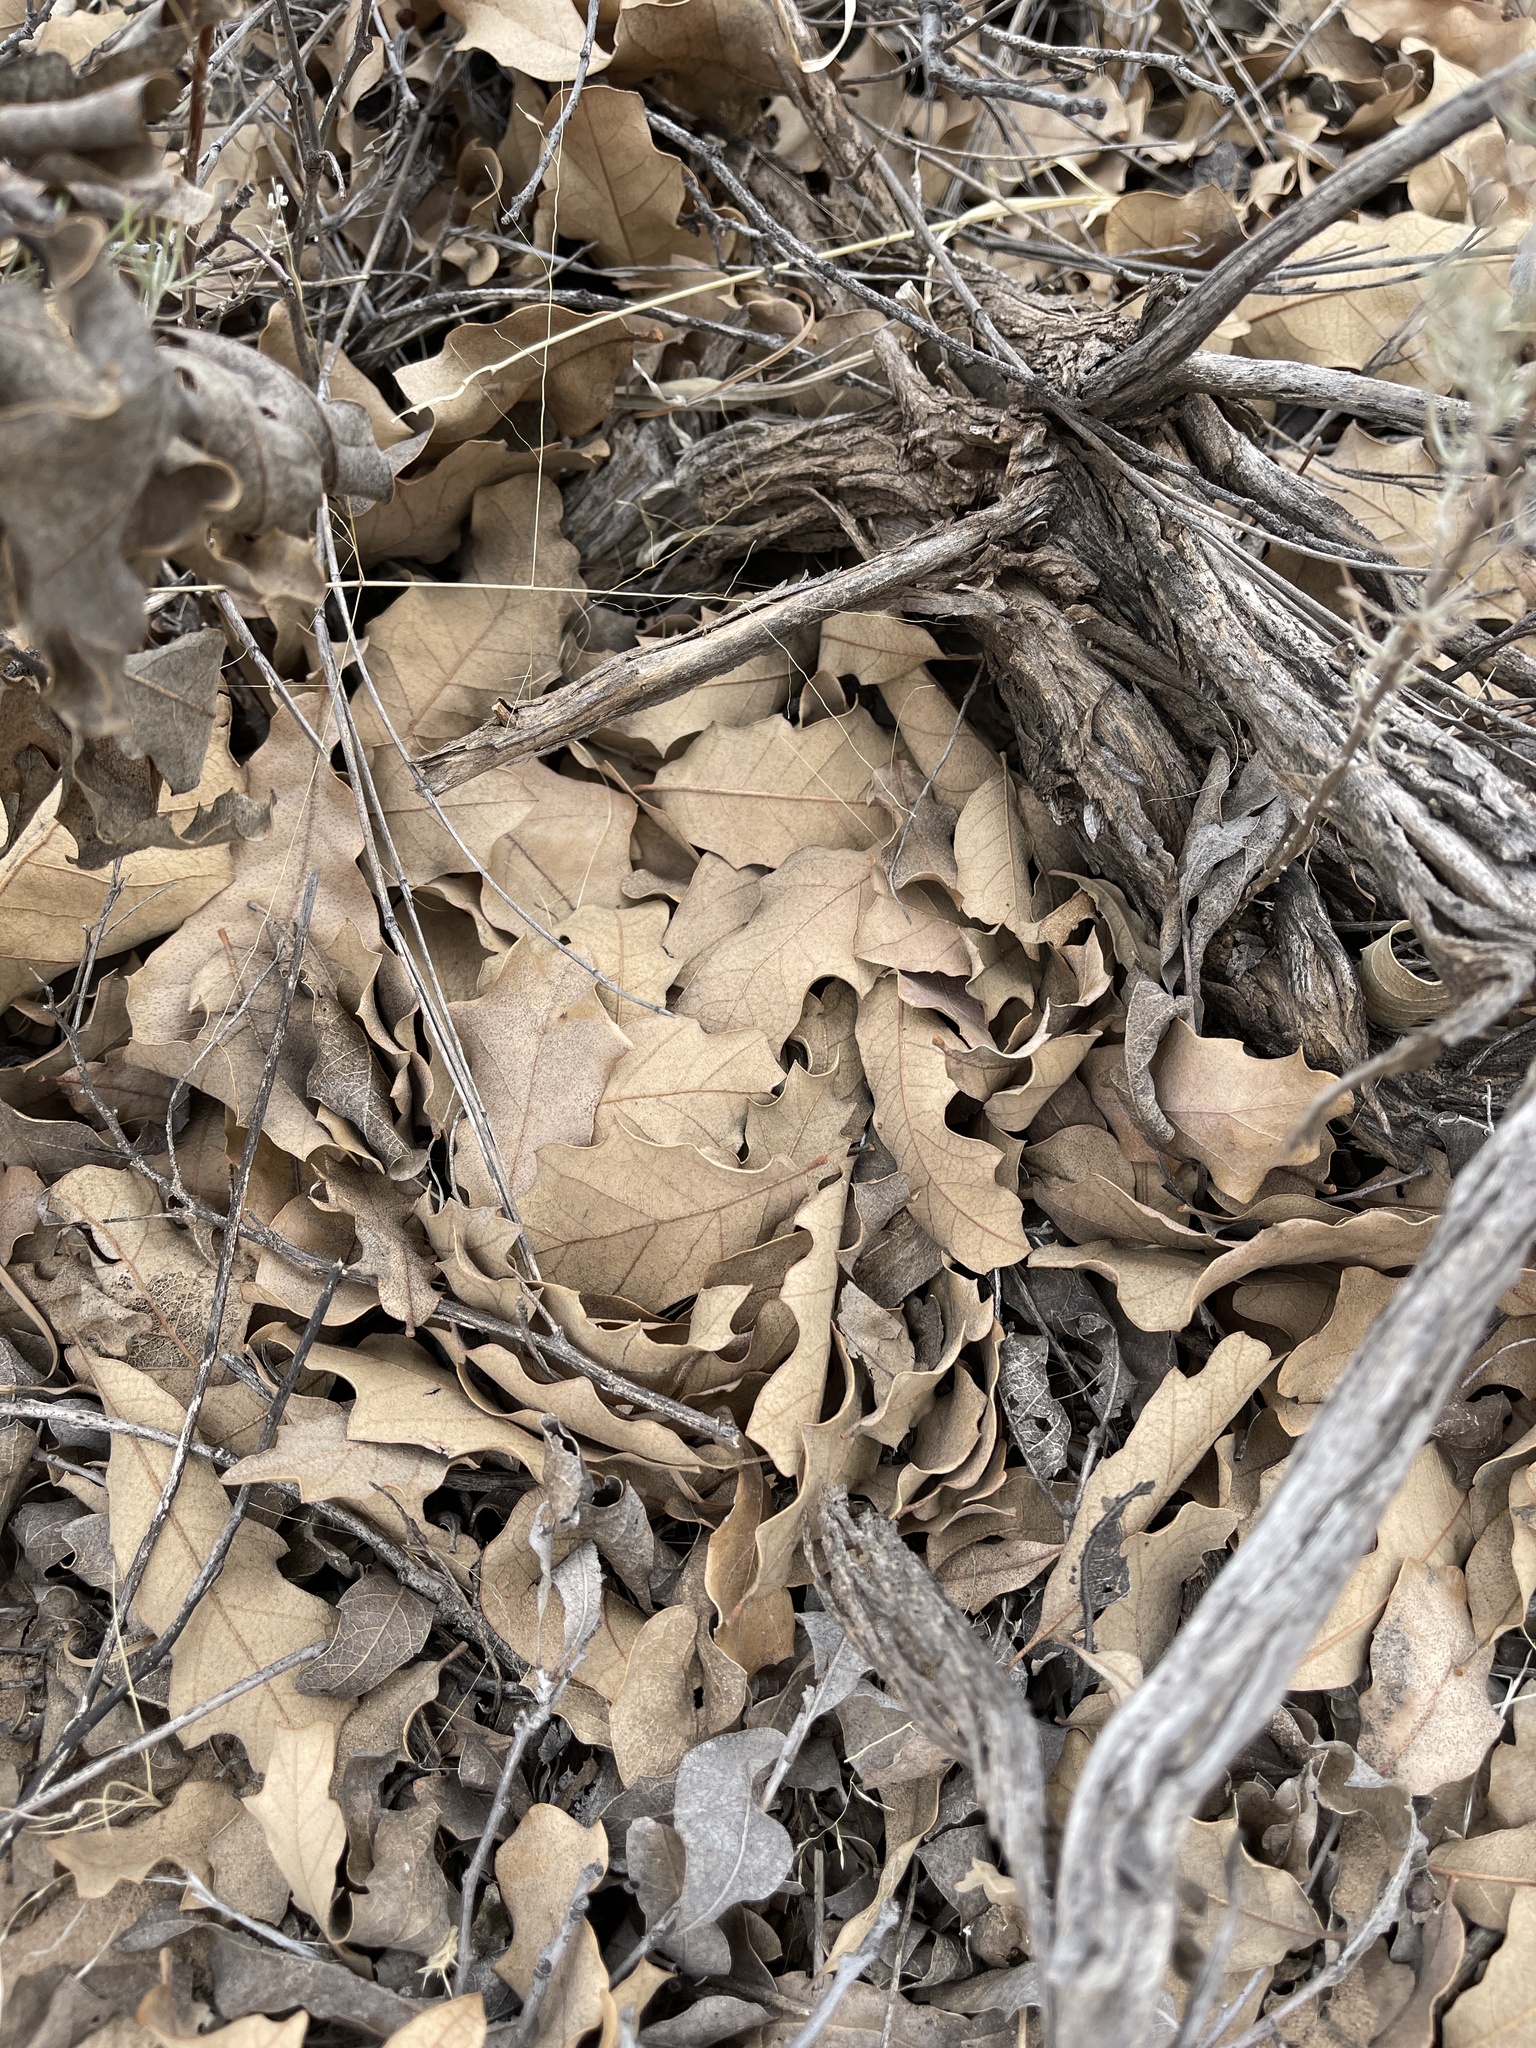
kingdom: Plantae
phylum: Tracheophyta
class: Magnoliopsida
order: Fagales
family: Fagaceae
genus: Quercus
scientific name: Quercus havardii
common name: Shinnery oak
